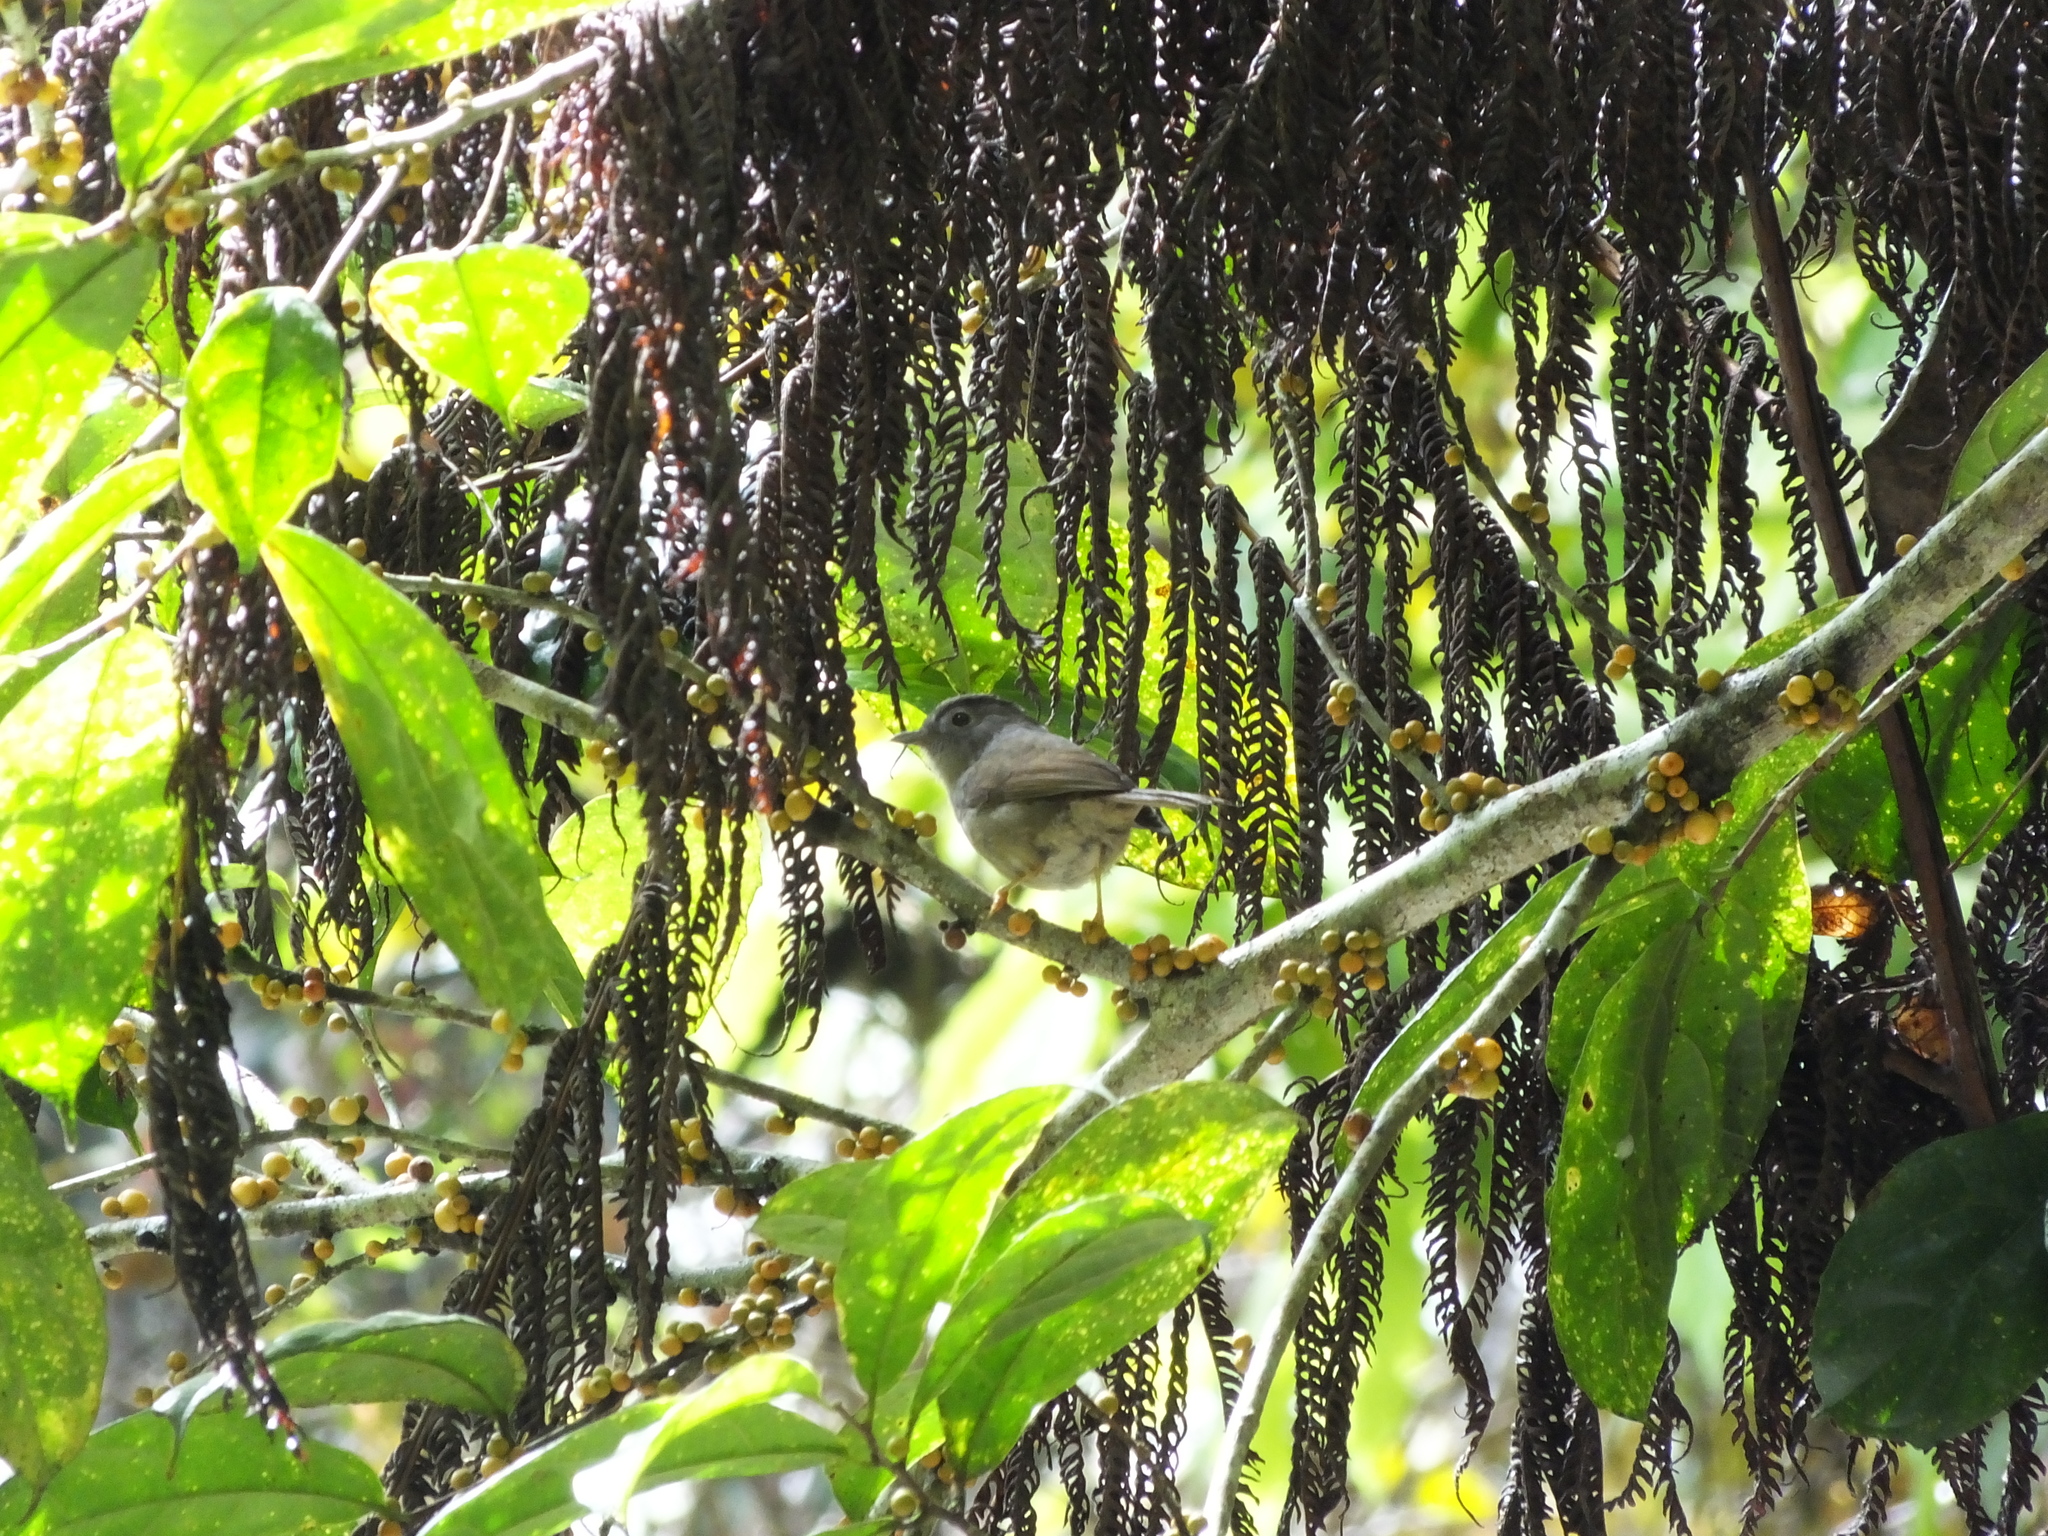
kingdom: Animalia
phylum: Chordata
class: Aves
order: Passeriformes
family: Pellorneidae
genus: Alcippe
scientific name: Alcippe peracensis
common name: Mountain fulvetta
